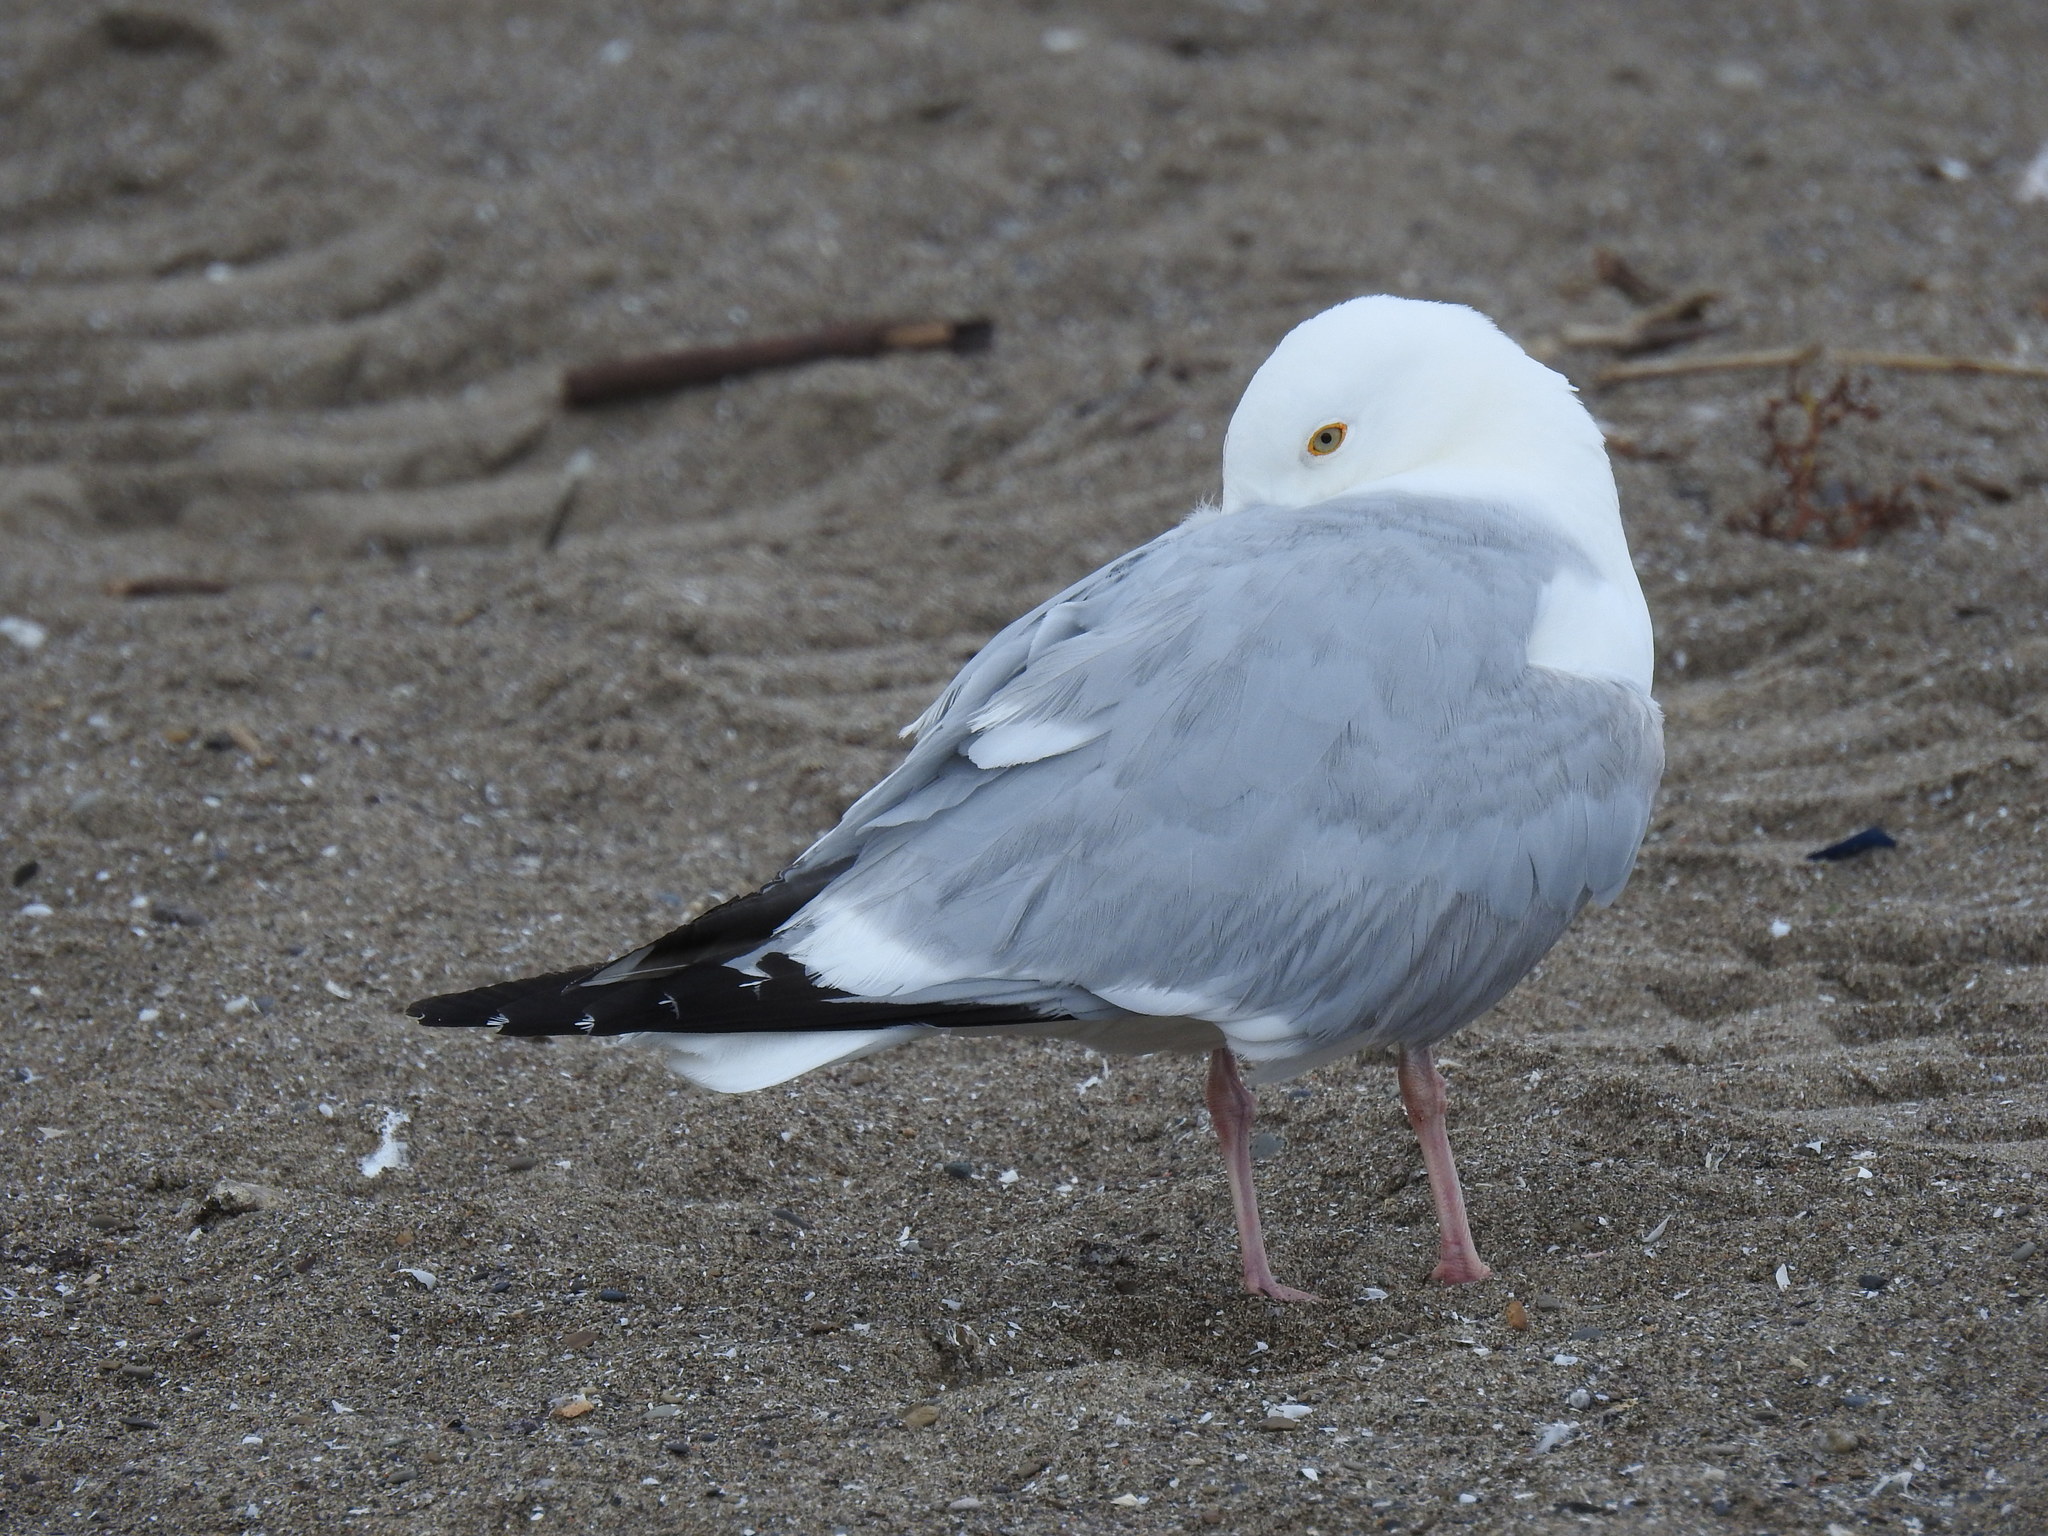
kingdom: Animalia
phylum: Chordata
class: Aves
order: Charadriiformes
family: Laridae
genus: Larus
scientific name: Larus argentatus
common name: Herring gull
